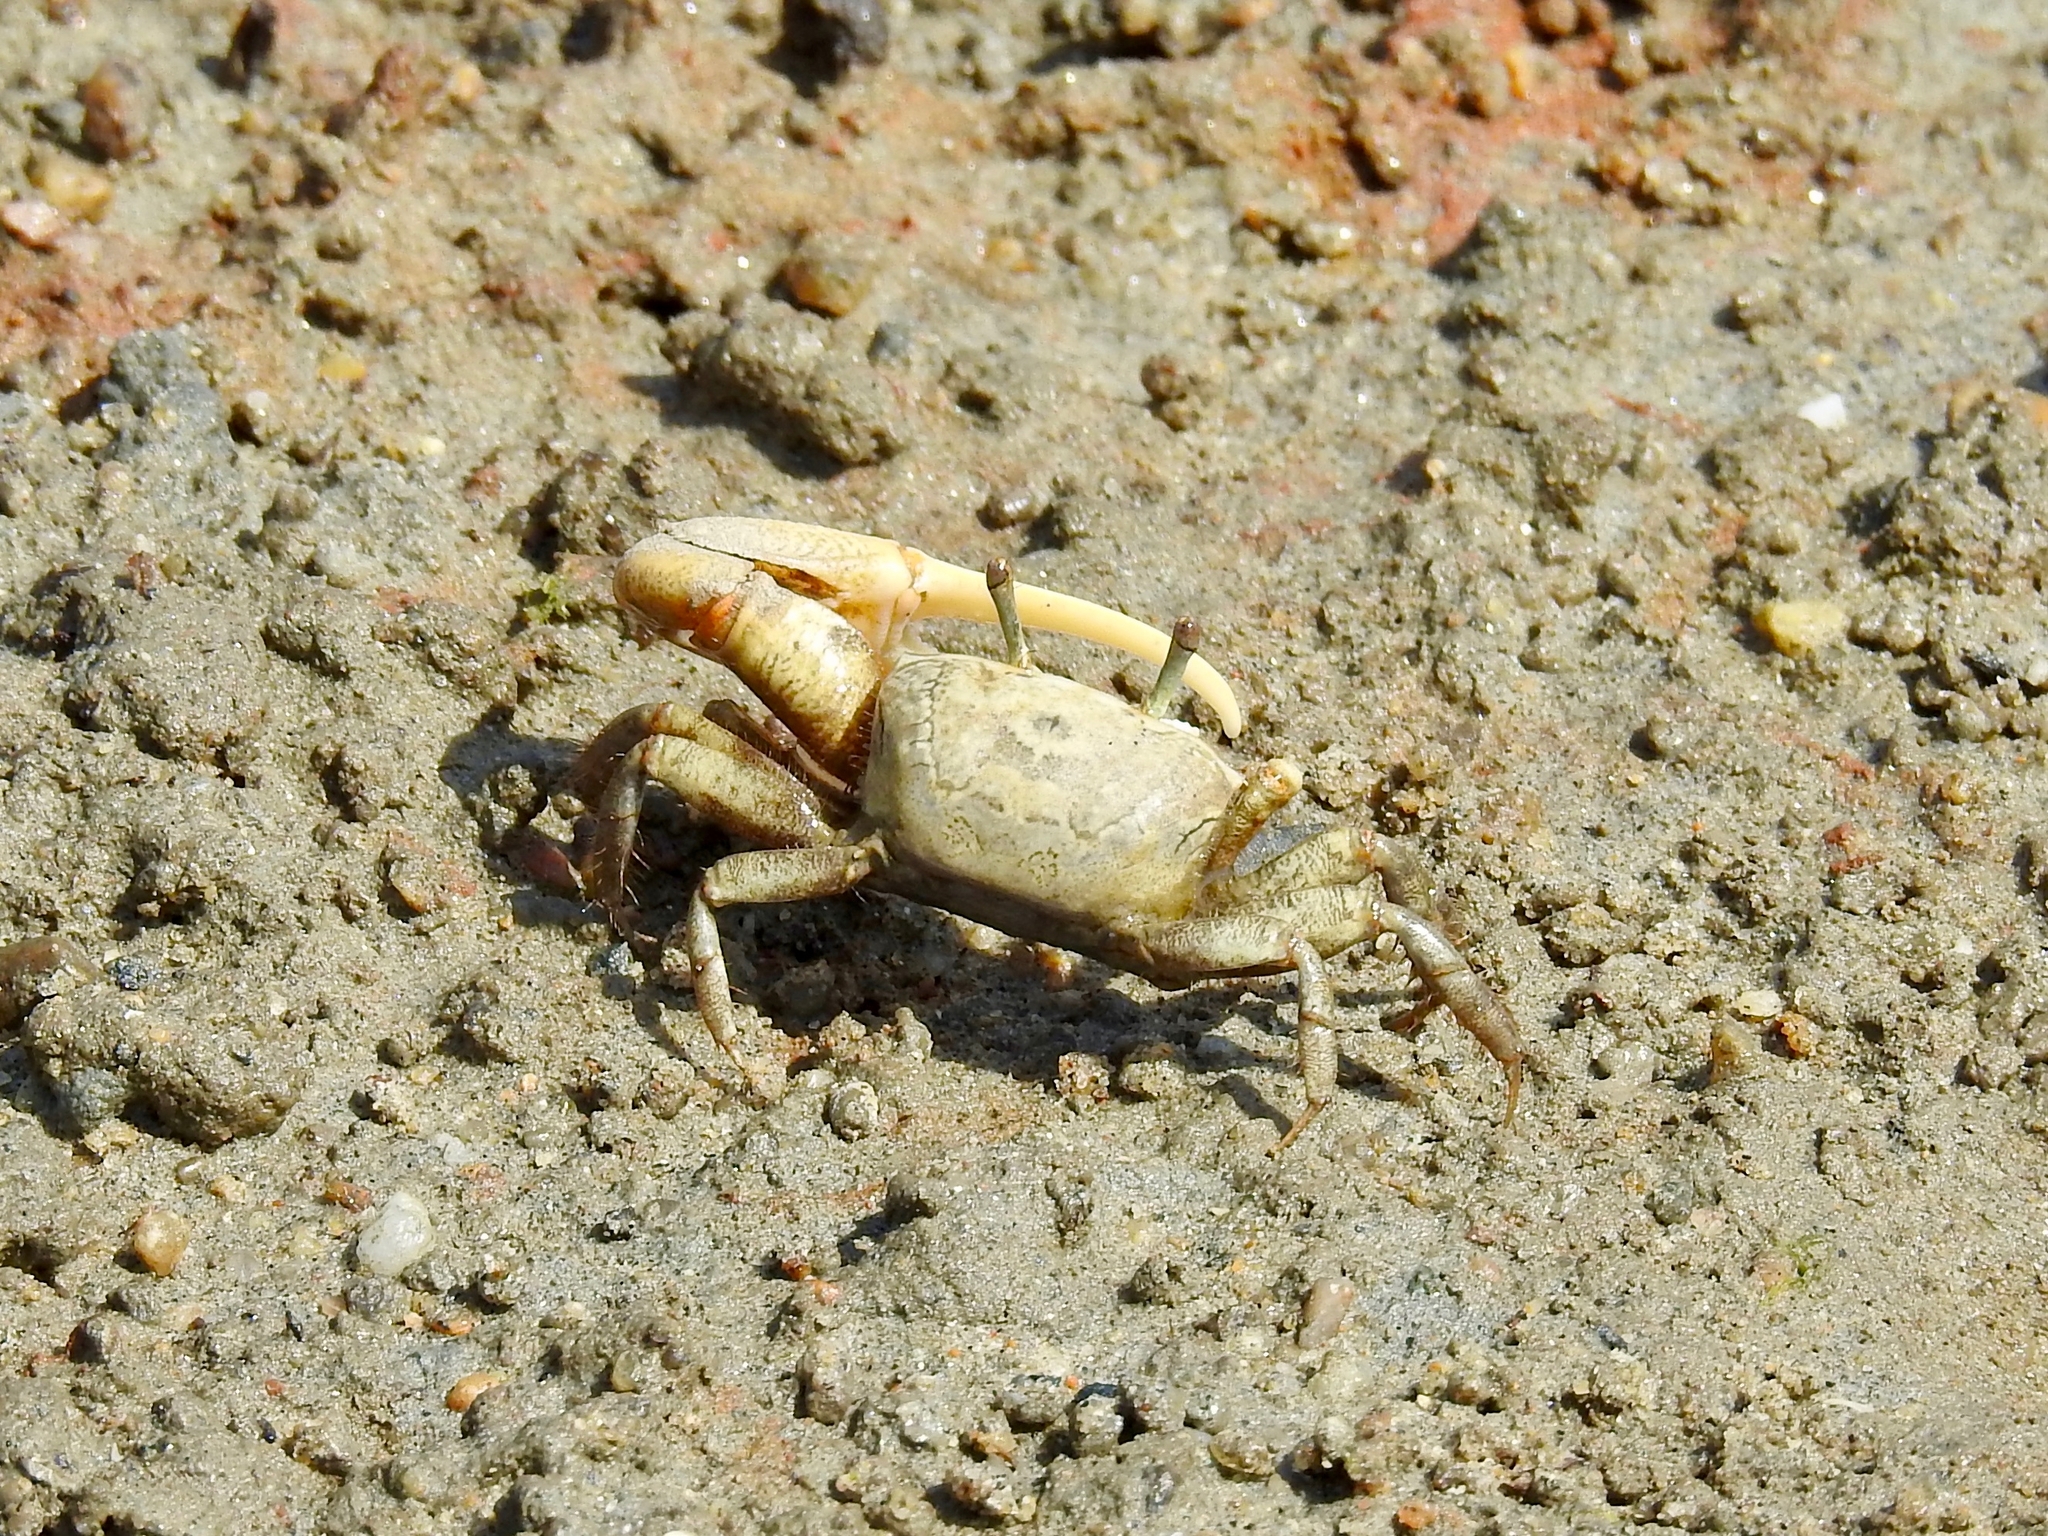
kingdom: Animalia
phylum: Arthropoda
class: Malacostraca
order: Decapoda
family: Ocypodidae
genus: Leptuca
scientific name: Leptuca crenulata
